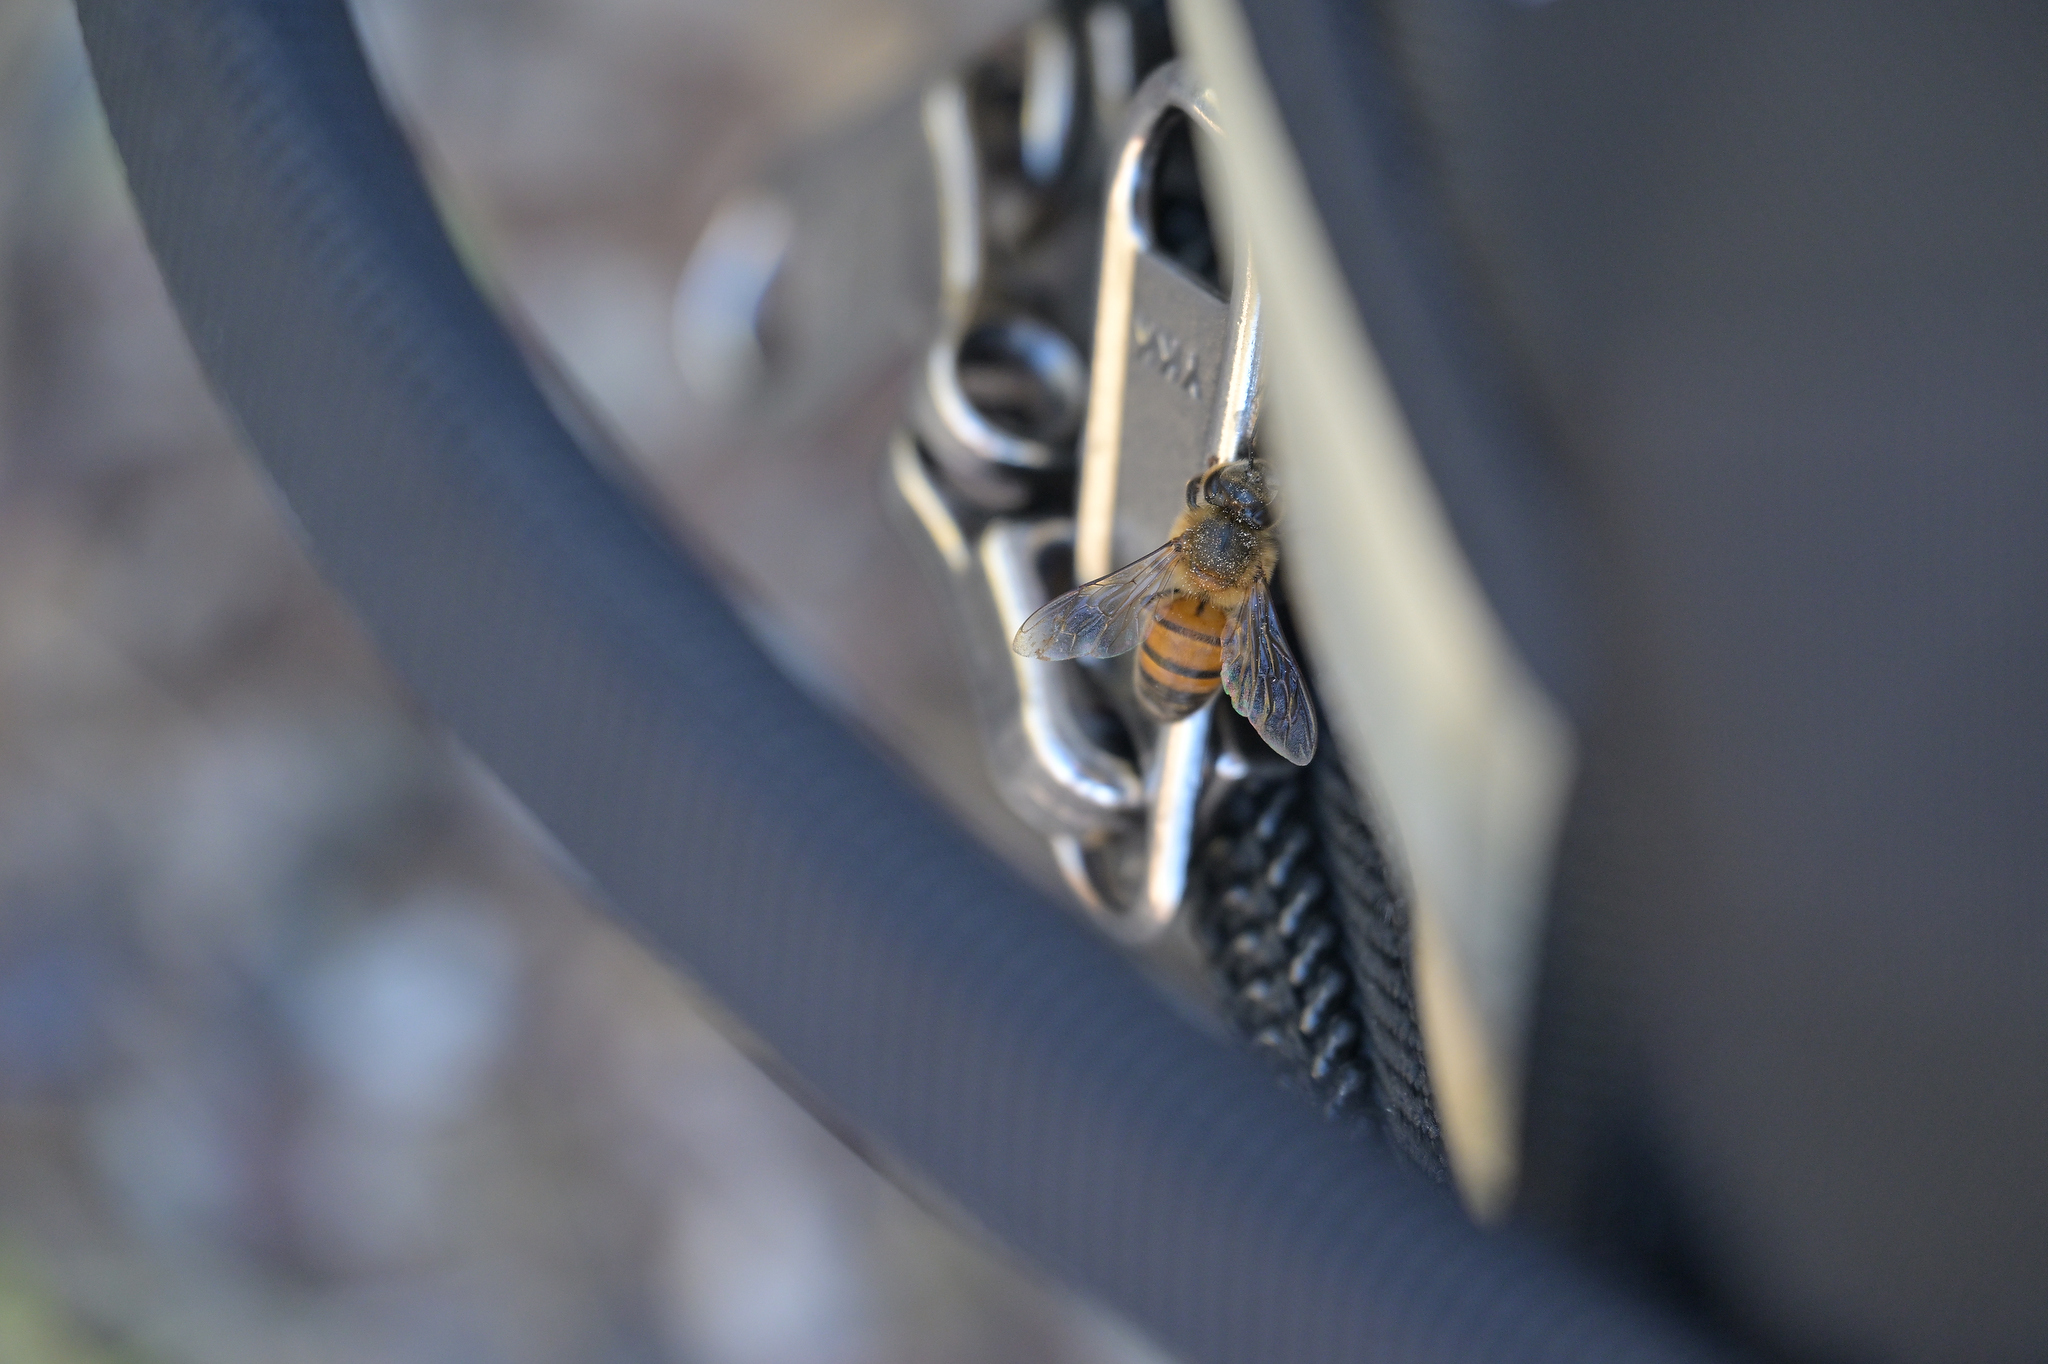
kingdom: Animalia
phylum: Arthropoda
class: Insecta
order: Hymenoptera
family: Apidae
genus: Apis
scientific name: Apis mellifera
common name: Honey bee
